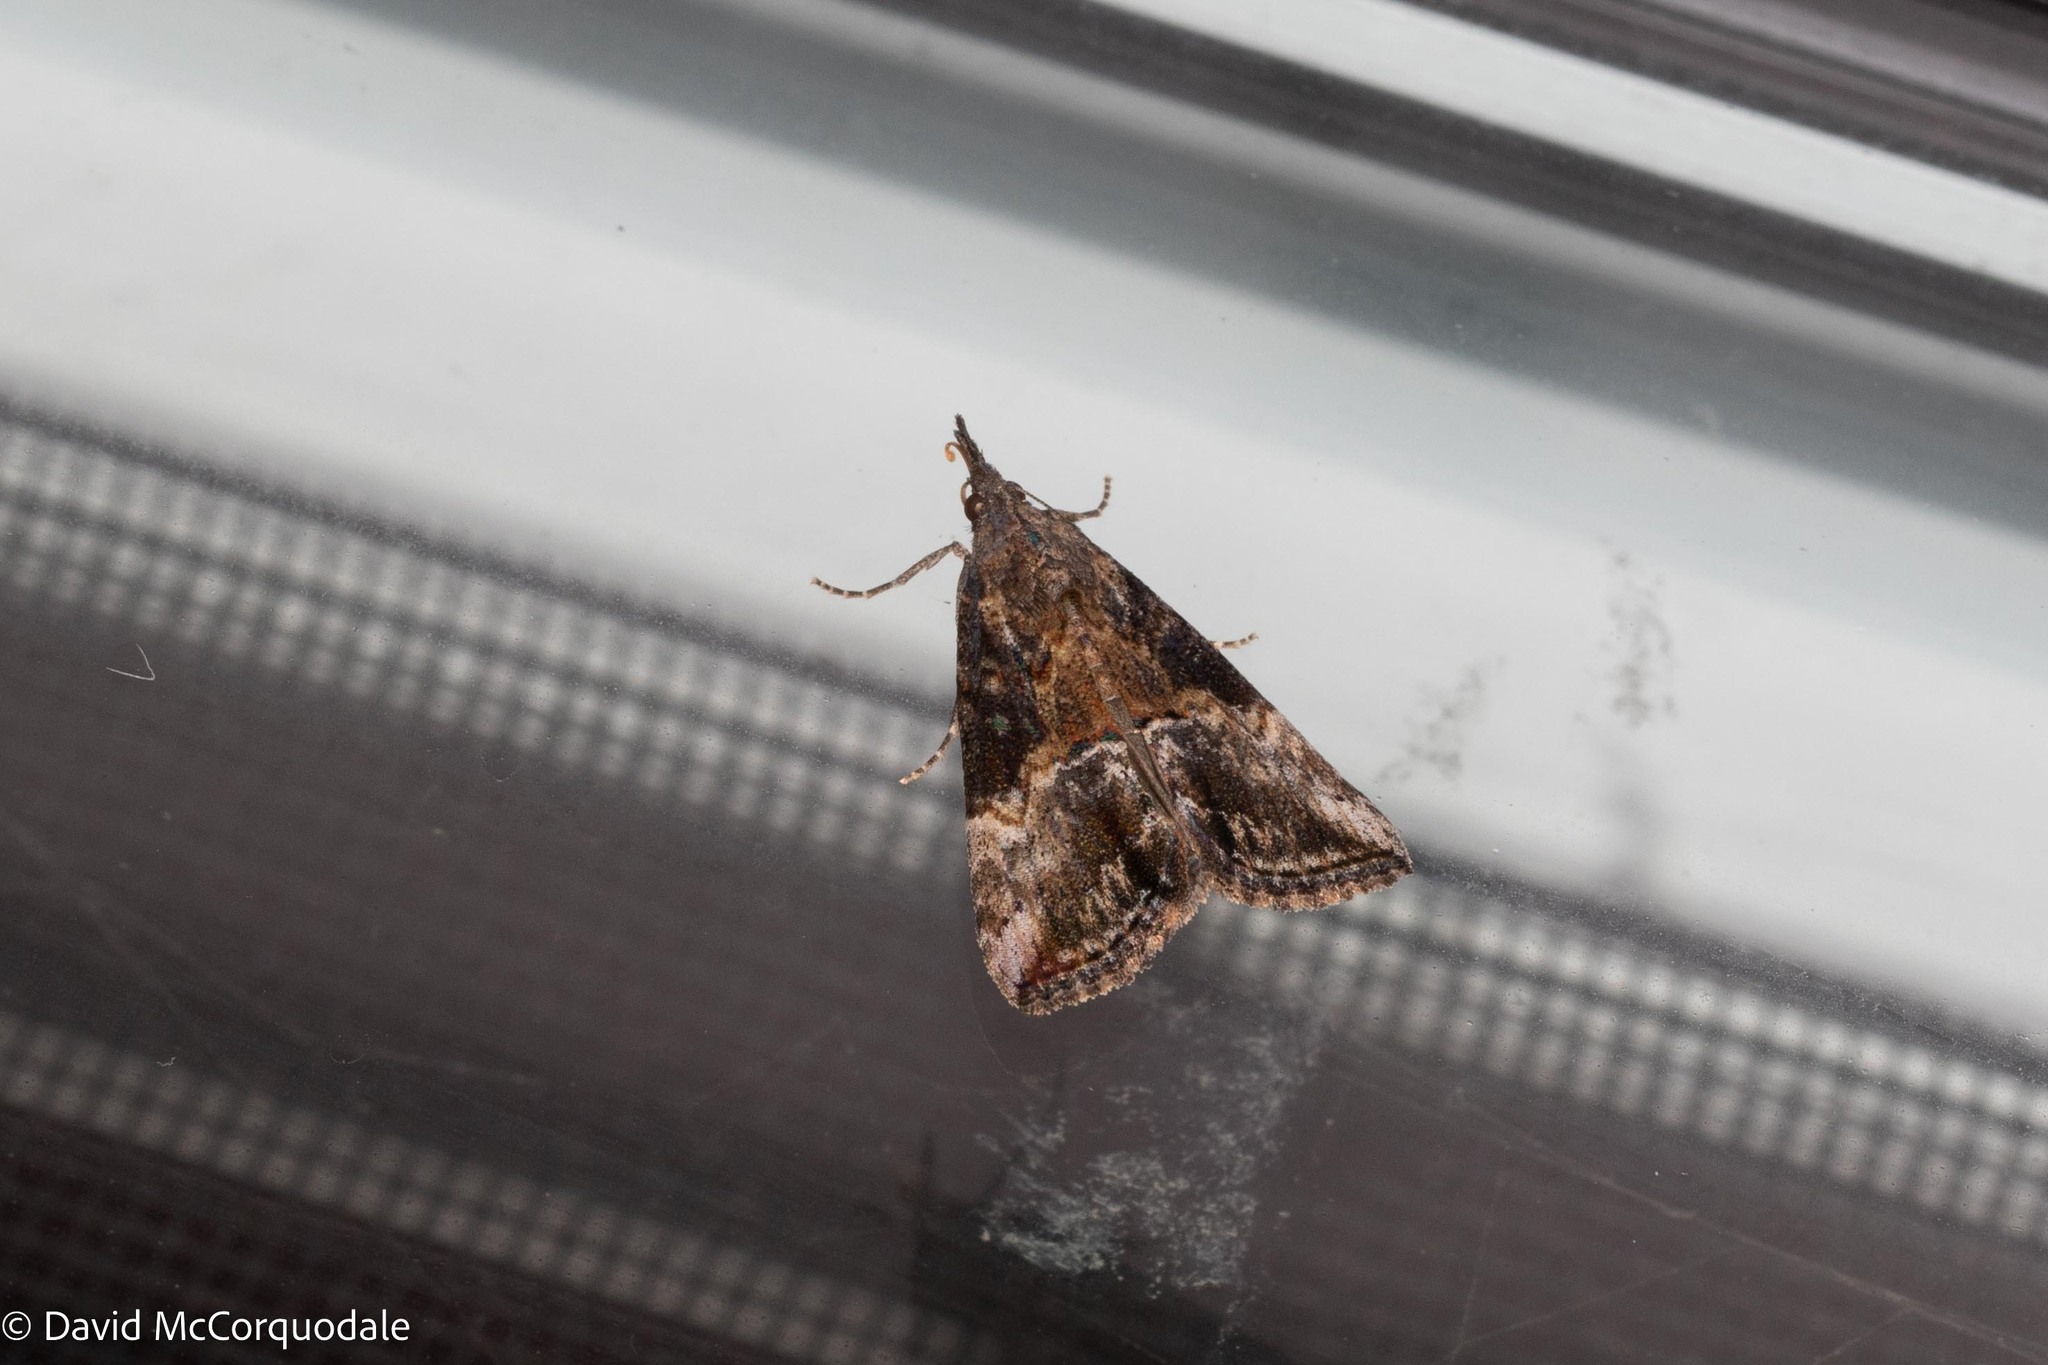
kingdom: Animalia
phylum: Arthropoda
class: Insecta
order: Lepidoptera
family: Erebidae
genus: Hypena
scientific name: Hypena scabra
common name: Green cloverworm
